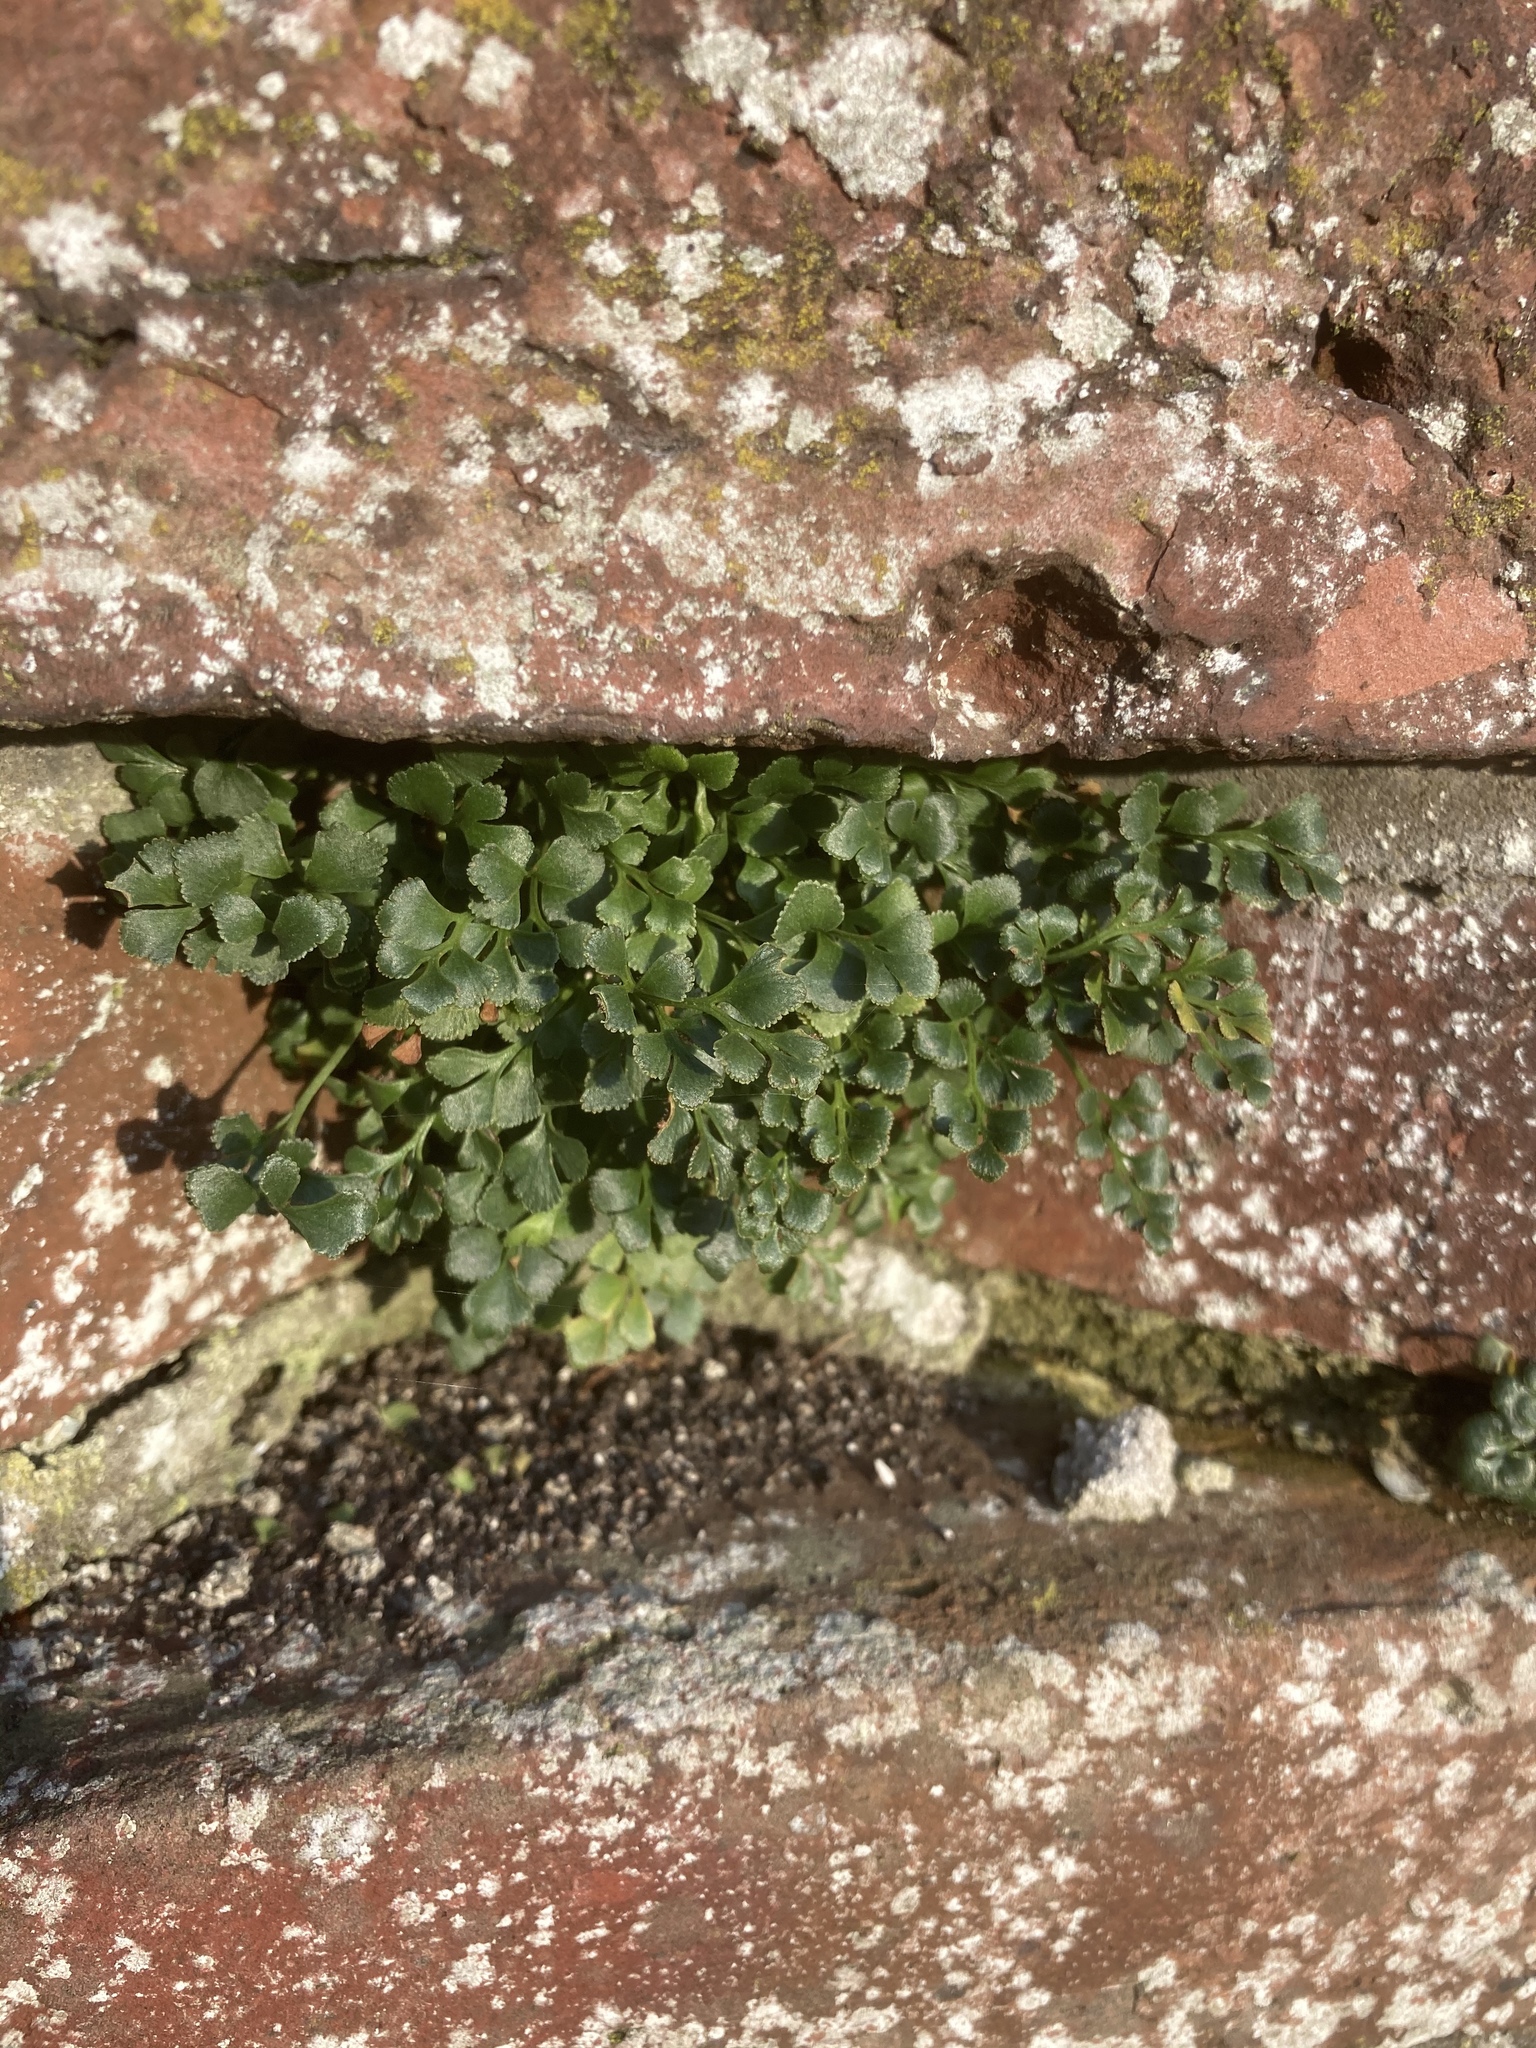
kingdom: Plantae
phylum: Tracheophyta
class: Polypodiopsida
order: Polypodiales
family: Aspleniaceae
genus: Asplenium
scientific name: Asplenium ruta-muraria
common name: Wall-rue
